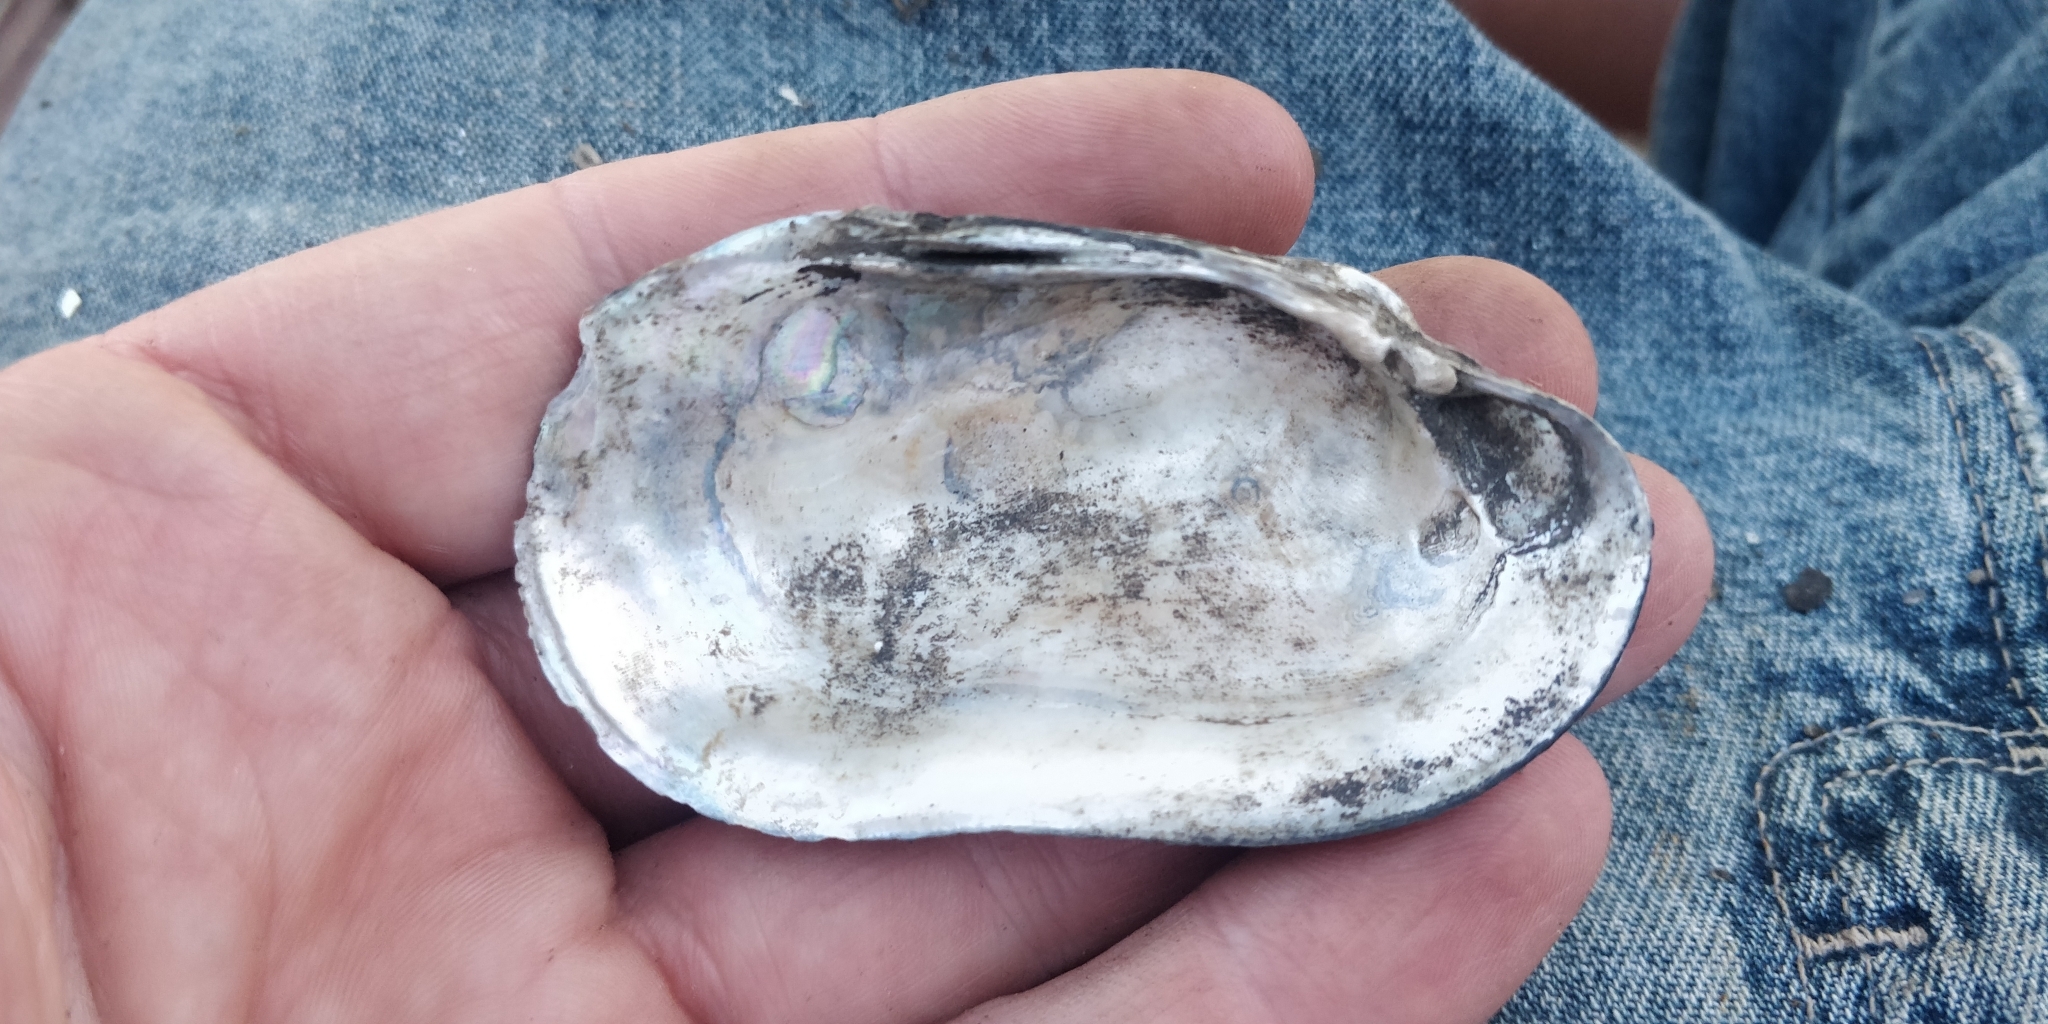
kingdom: Animalia
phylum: Mollusca
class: Bivalvia
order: Unionida
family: Unionidae
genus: Lampsilis
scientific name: Lampsilis siliquoidea
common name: Fatmucket
